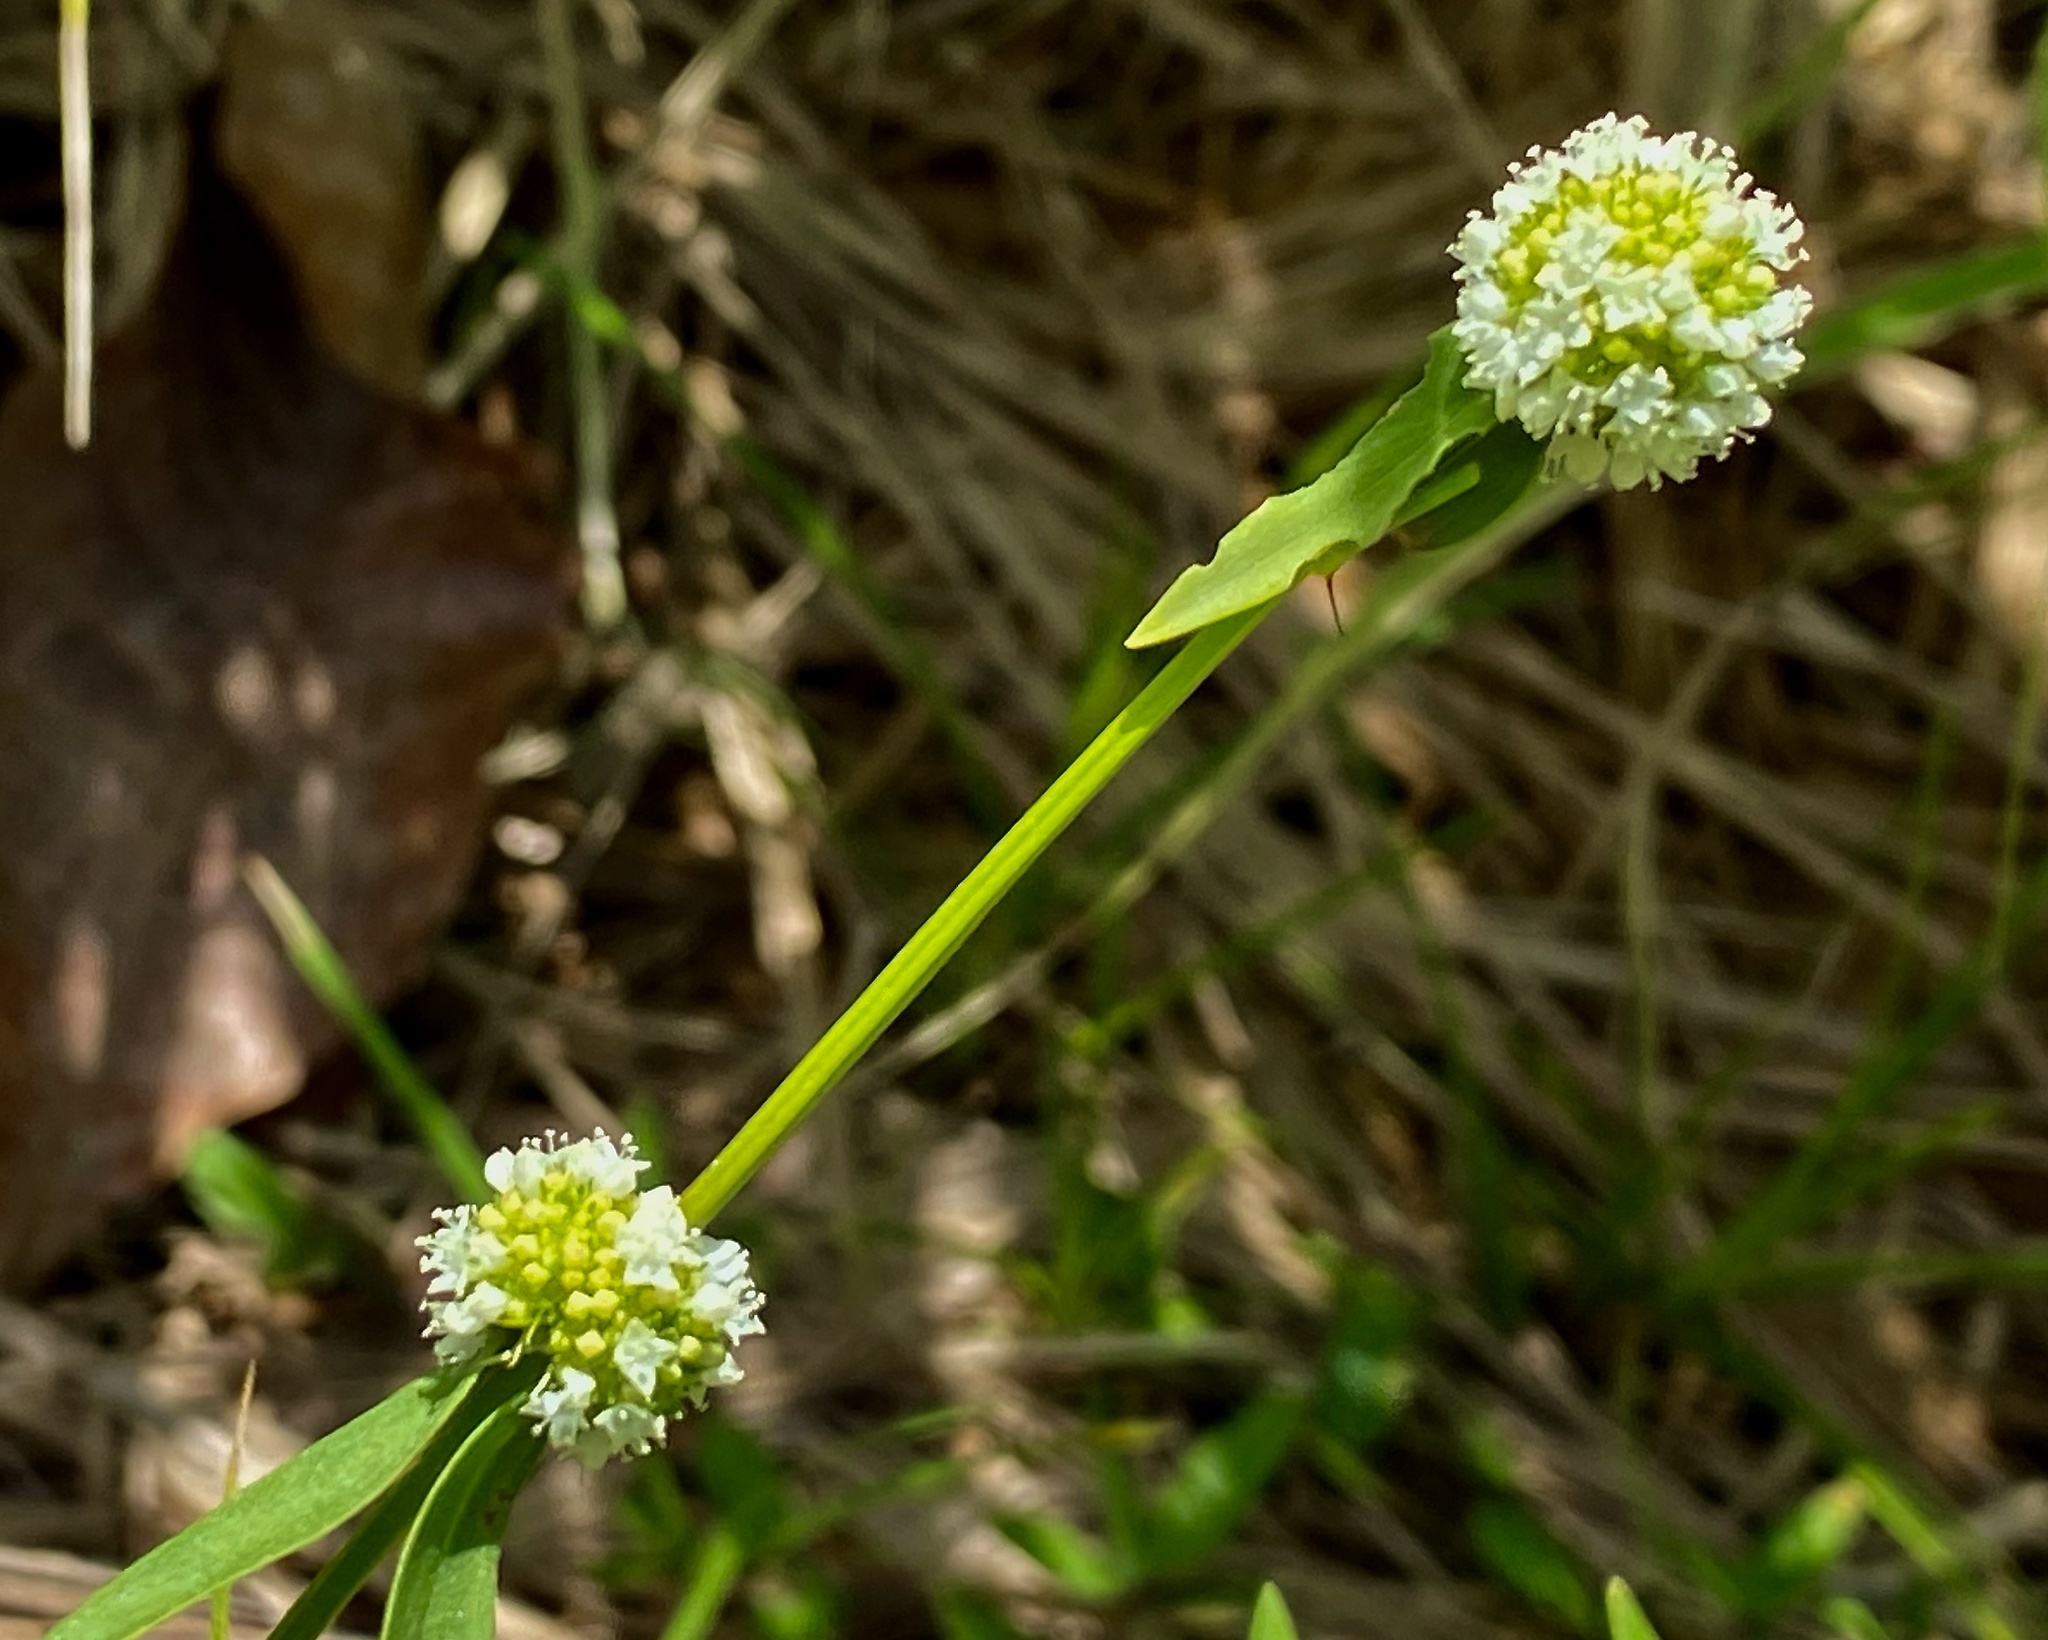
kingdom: Plantae
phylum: Tracheophyta
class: Magnoliopsida
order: Gentianales
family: Rubiaceae
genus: Spermacoce
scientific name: Spermacoce verticillata
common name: Shrubby false buttonweed
